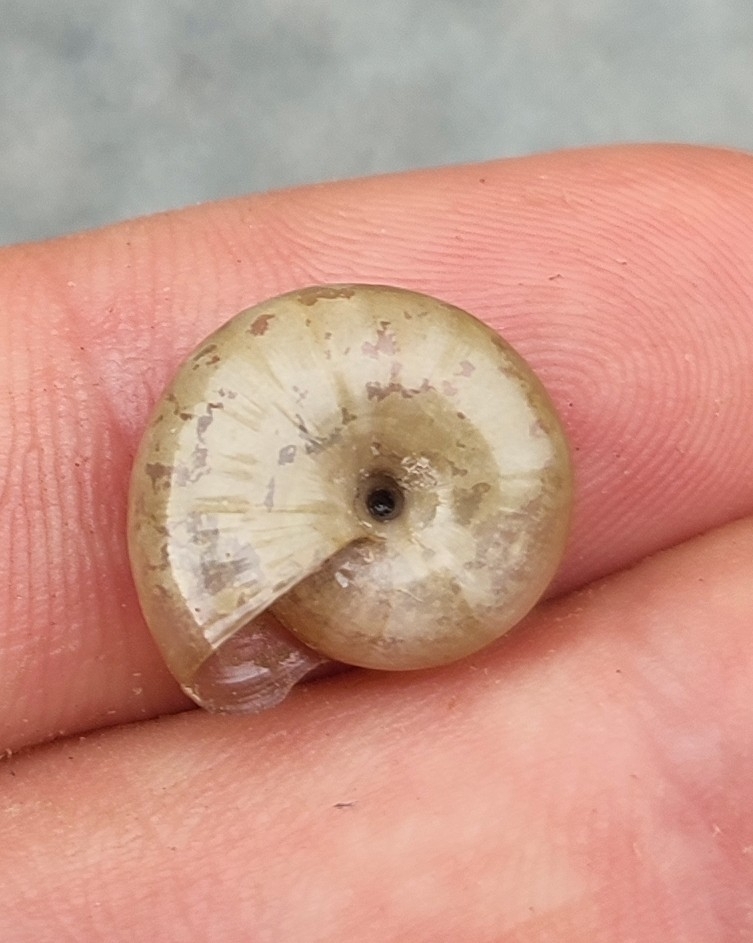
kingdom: Animalia
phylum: Mollusca
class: Gastropoda
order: Stylommatophora
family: Oxychilidae
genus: Oxychilus
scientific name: Oxychilus draparnaudi
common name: Draparnaud's glass snail
